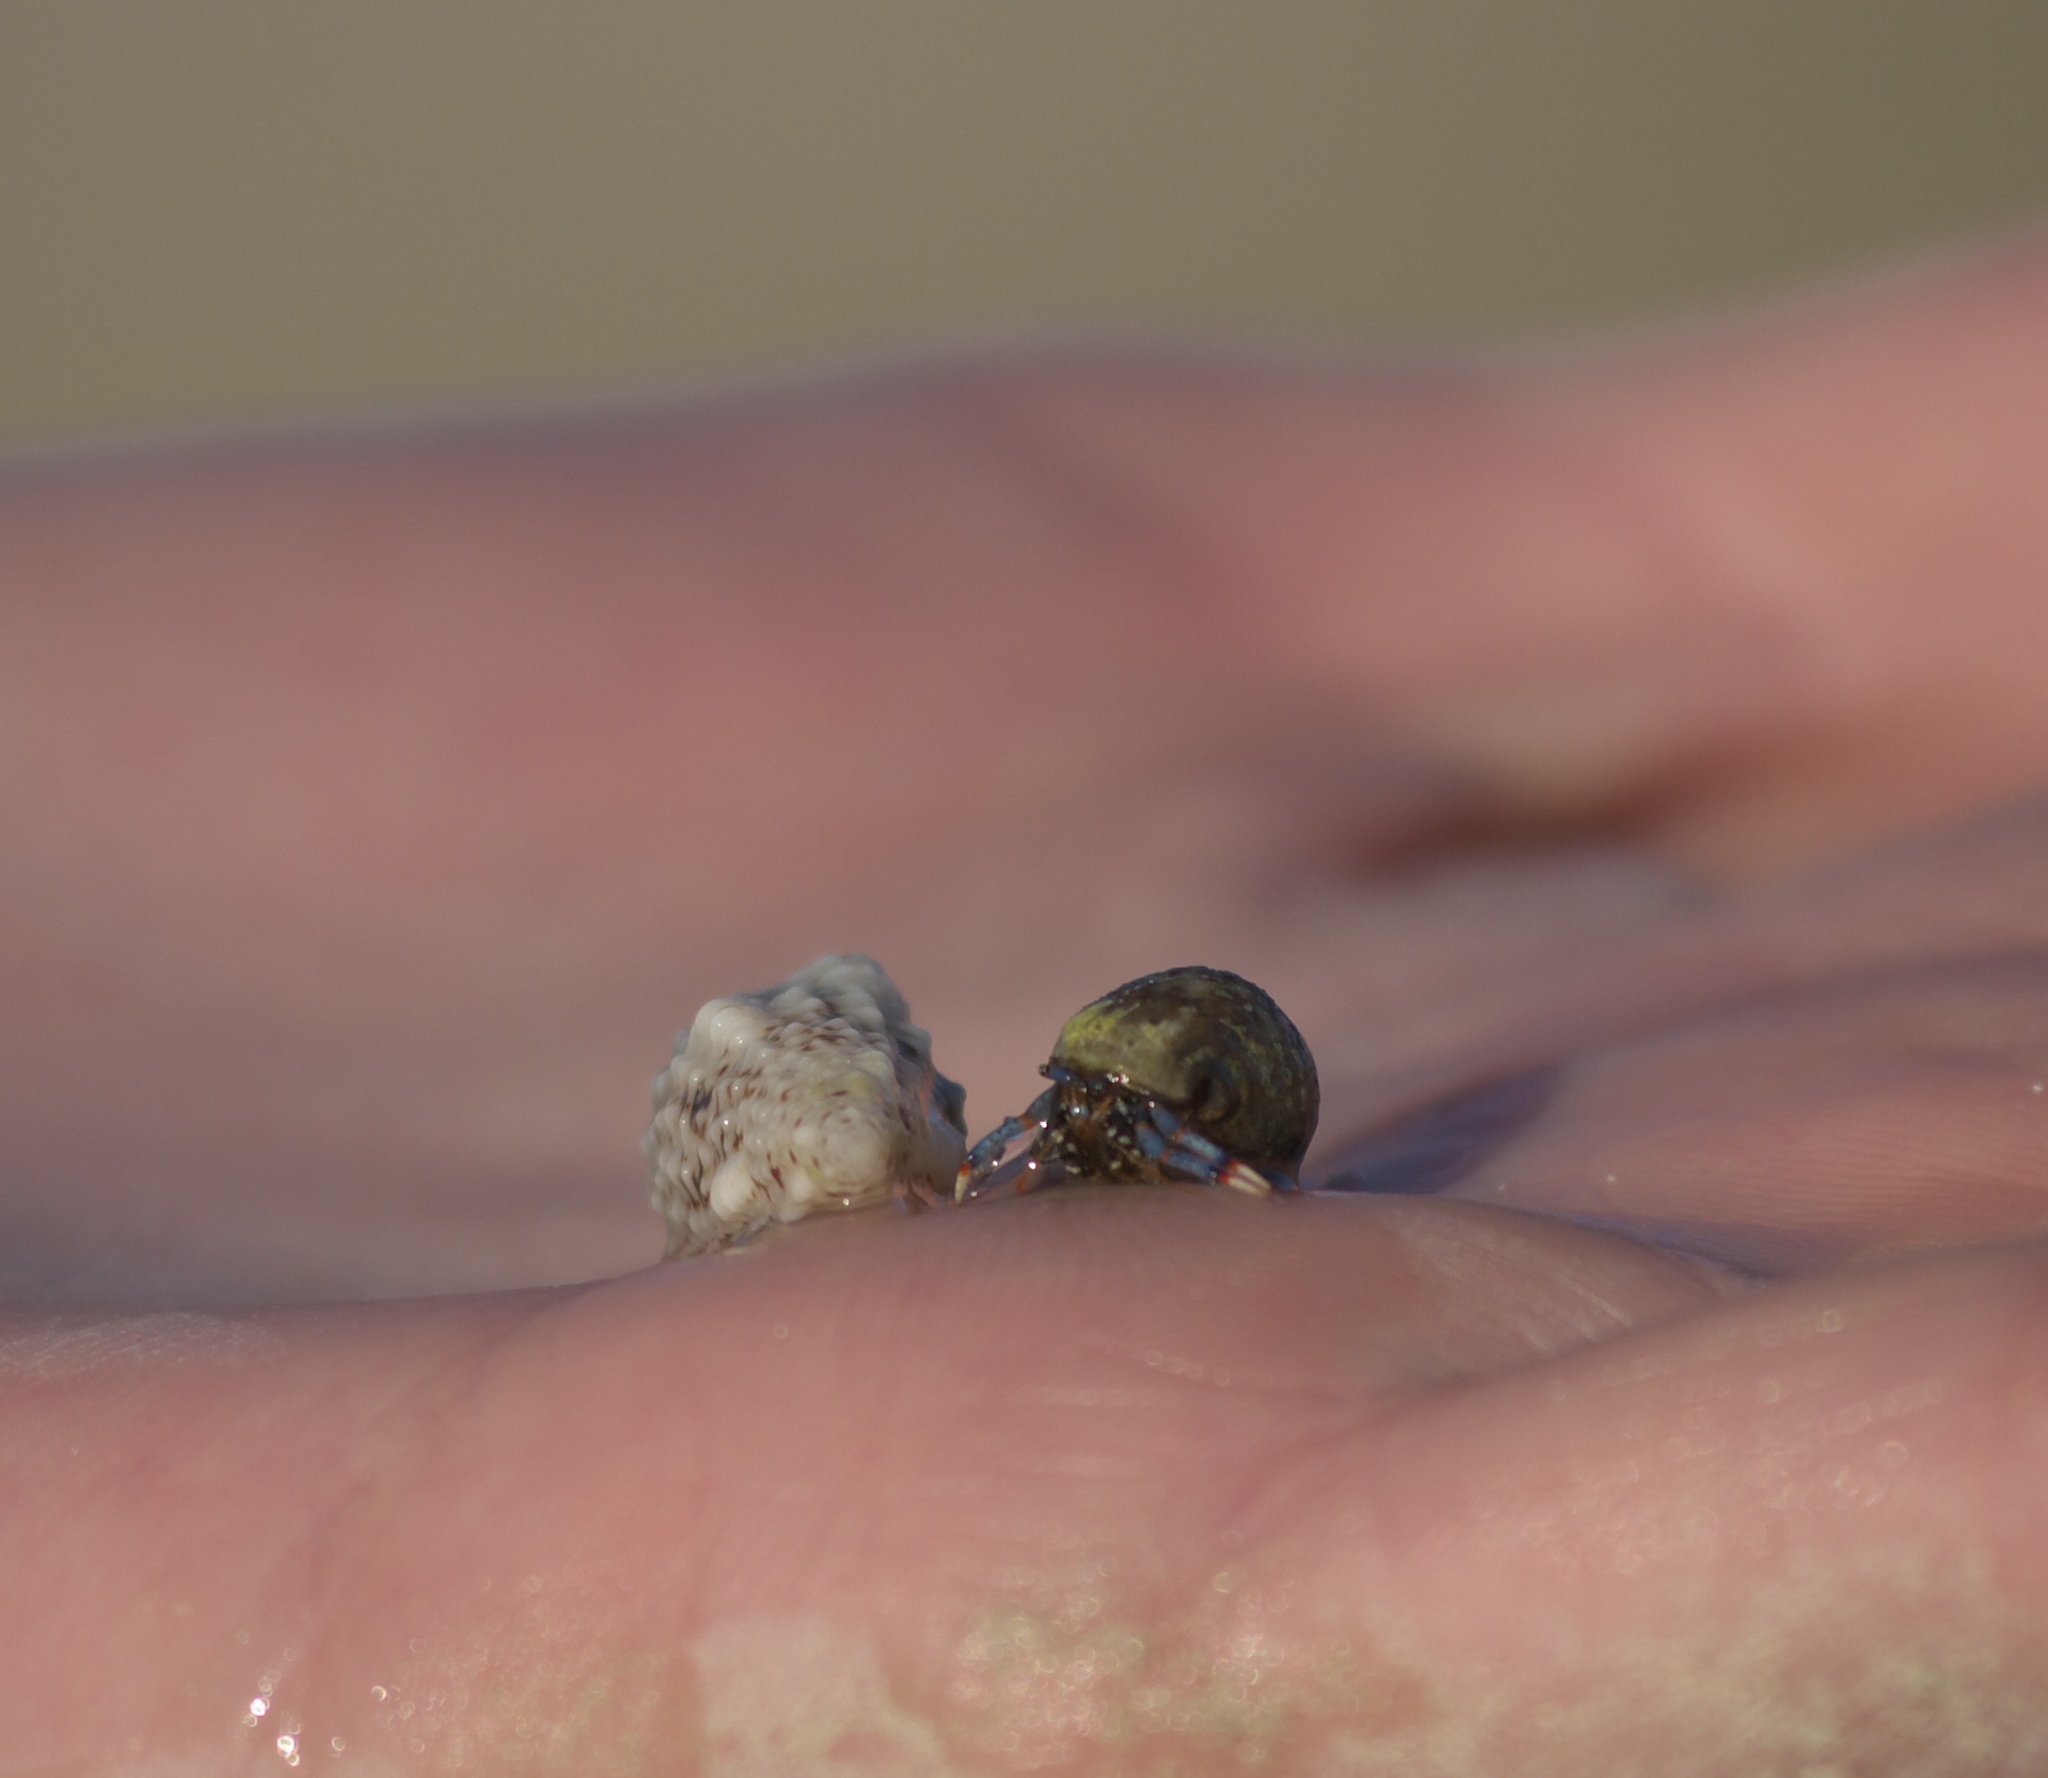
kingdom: Animalia
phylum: Arthropoda
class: Malacostraca
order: Decapoda
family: Diogenidae
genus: Clibanarius
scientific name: Clibanarius tricolor
